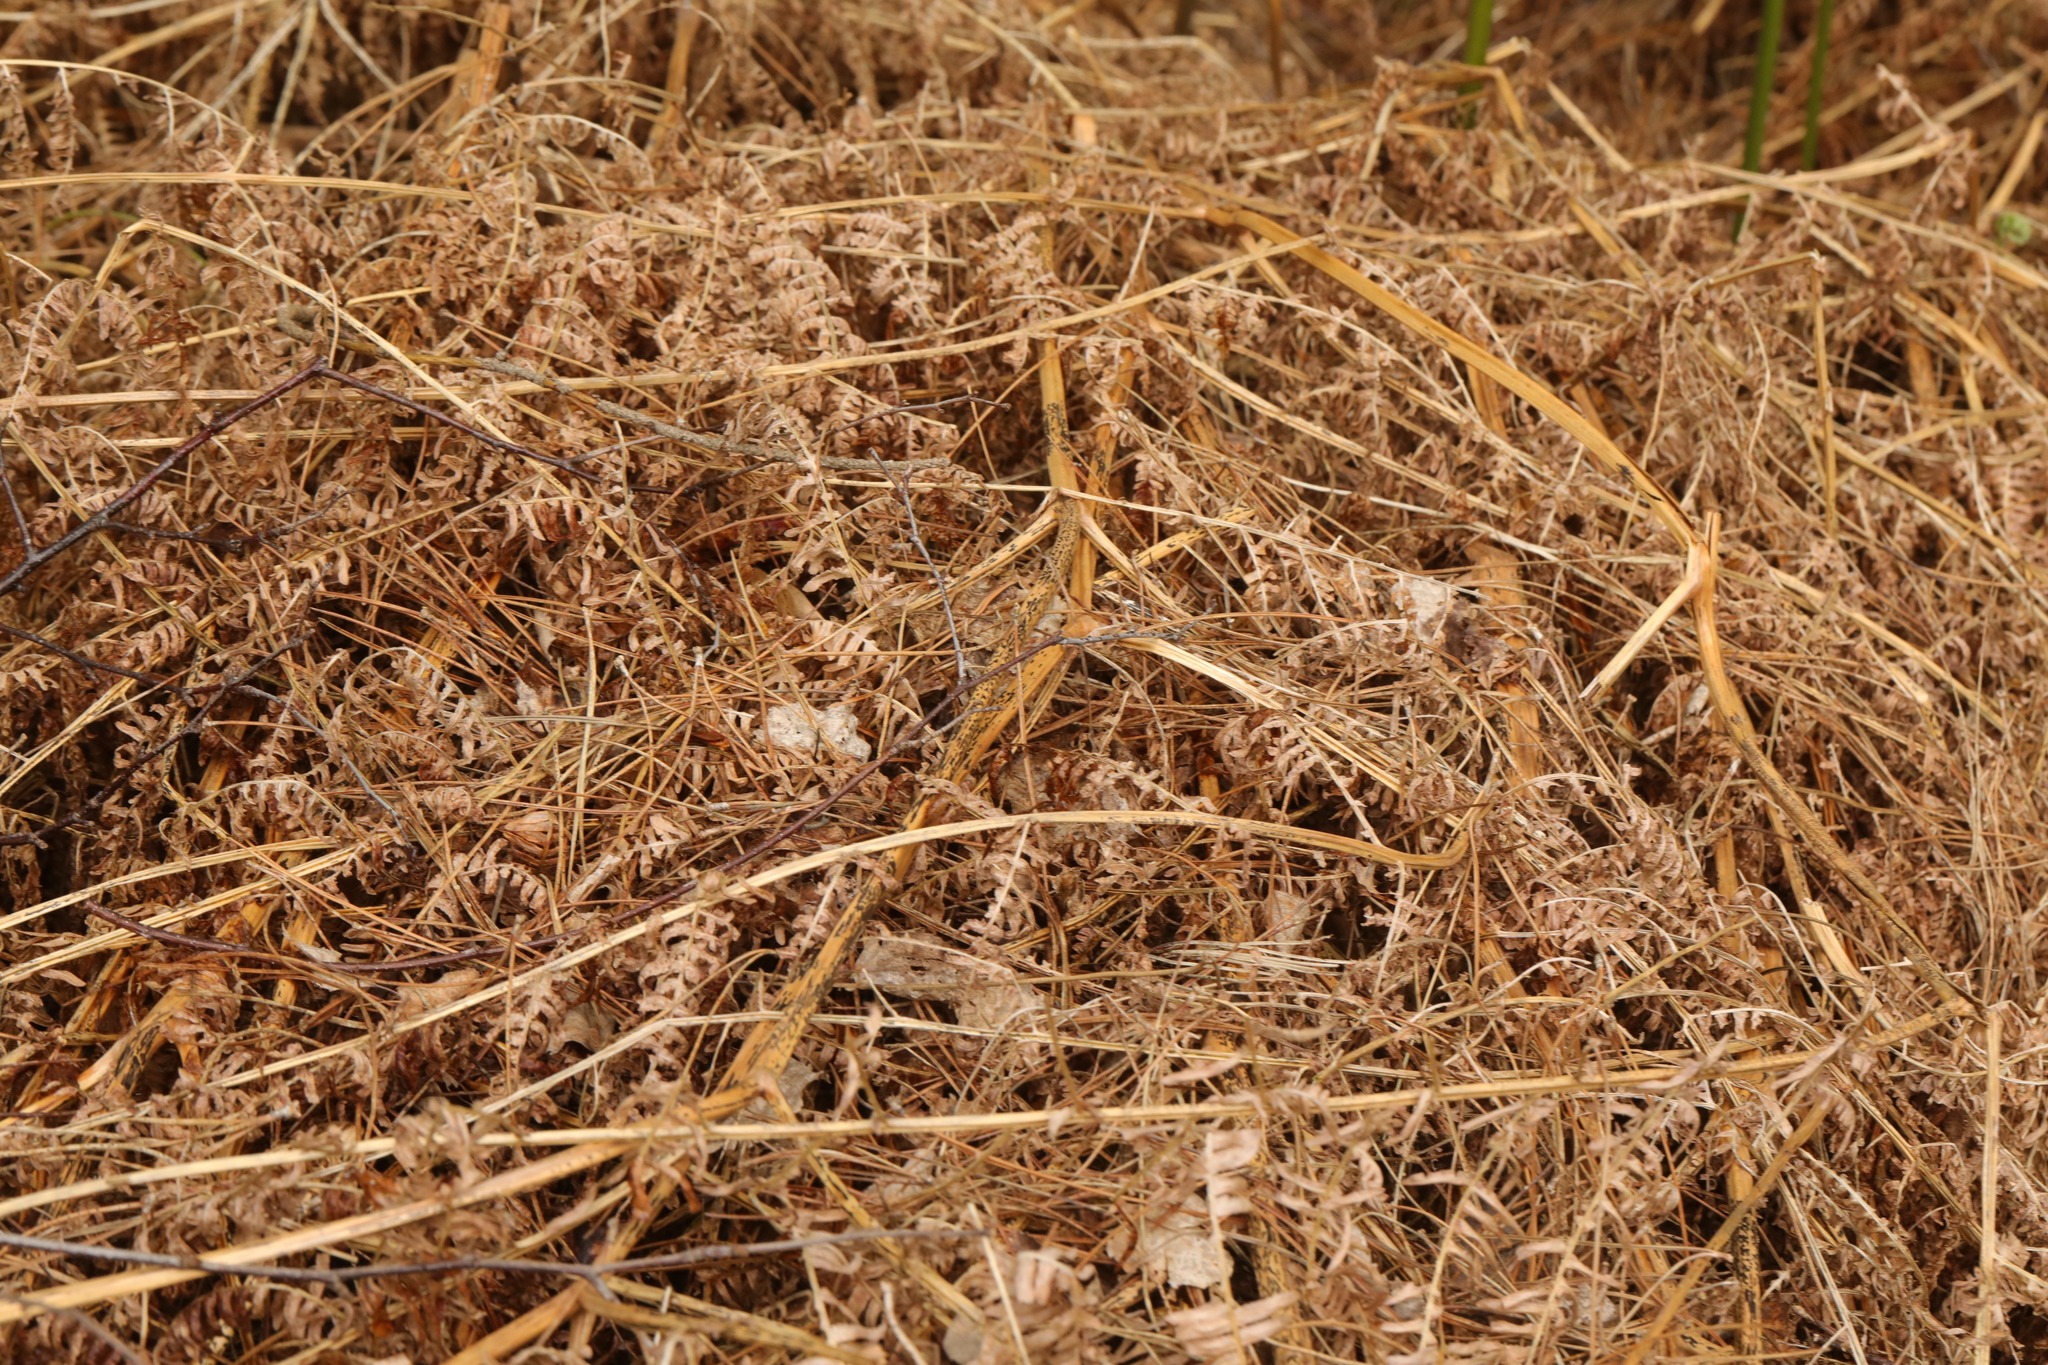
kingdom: Plantae
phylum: Tracheophyta
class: Polypodiopsida
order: Polypodiales
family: Dennstaedtiaceae
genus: Pteridium
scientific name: Pteridium aquilinum
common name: Bracken
